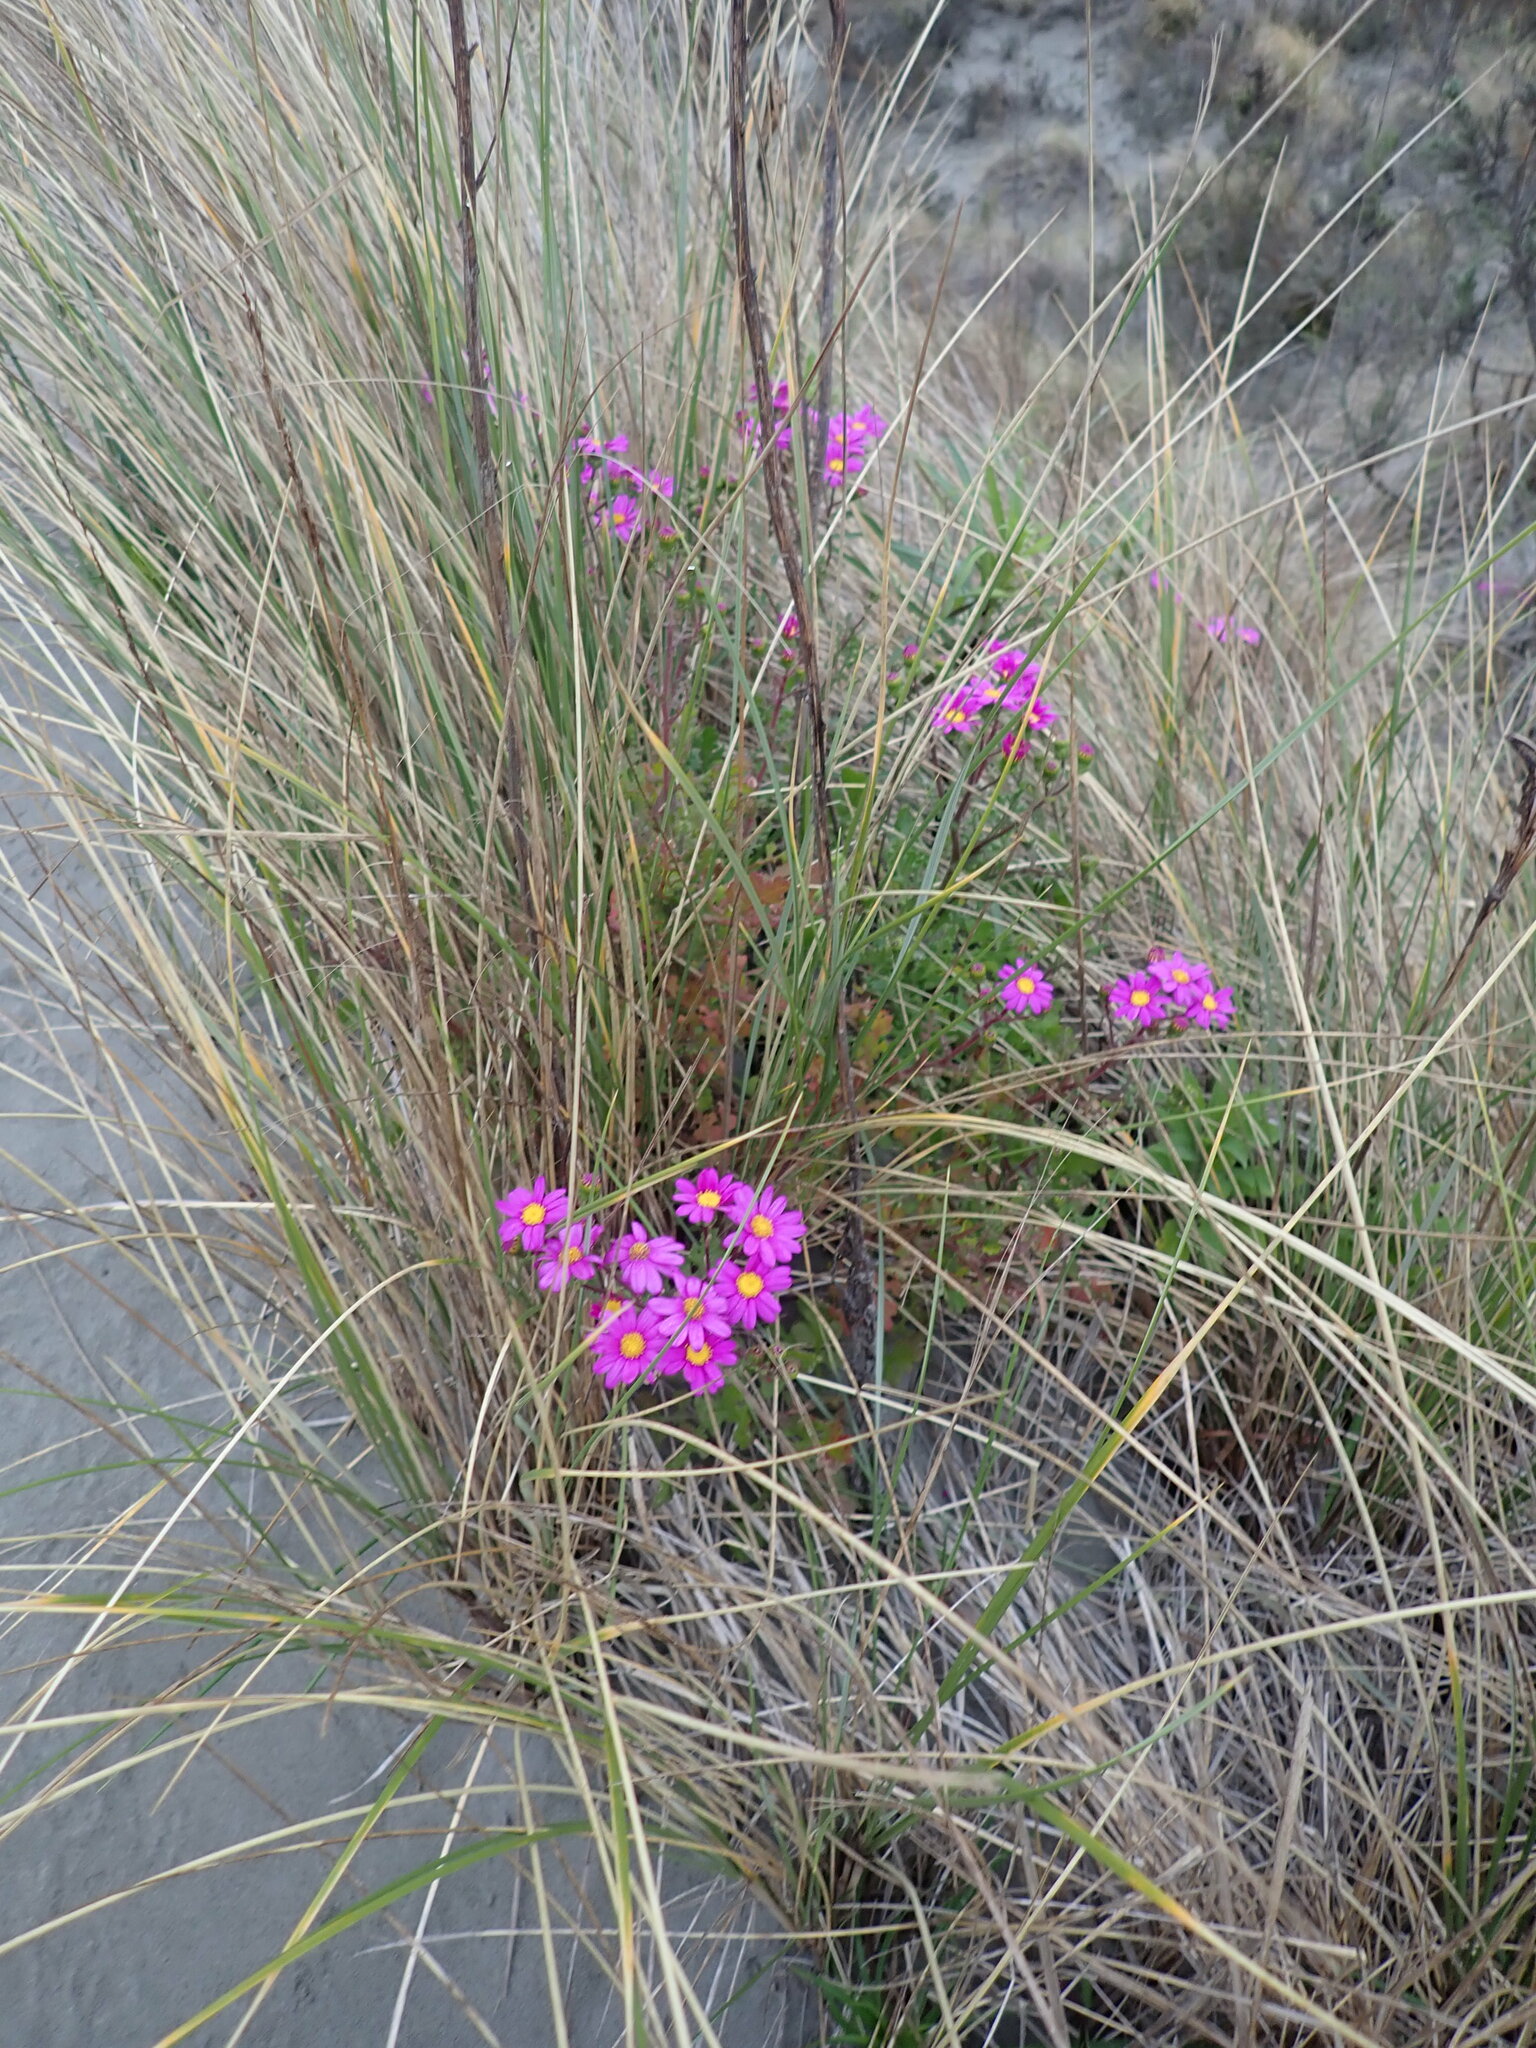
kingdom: Plantae
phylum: Tracheophyta
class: Magnoliopsida
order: Asterales
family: Asteraceae
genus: Senecio
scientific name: Senecio elegans
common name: Purple groundsel
